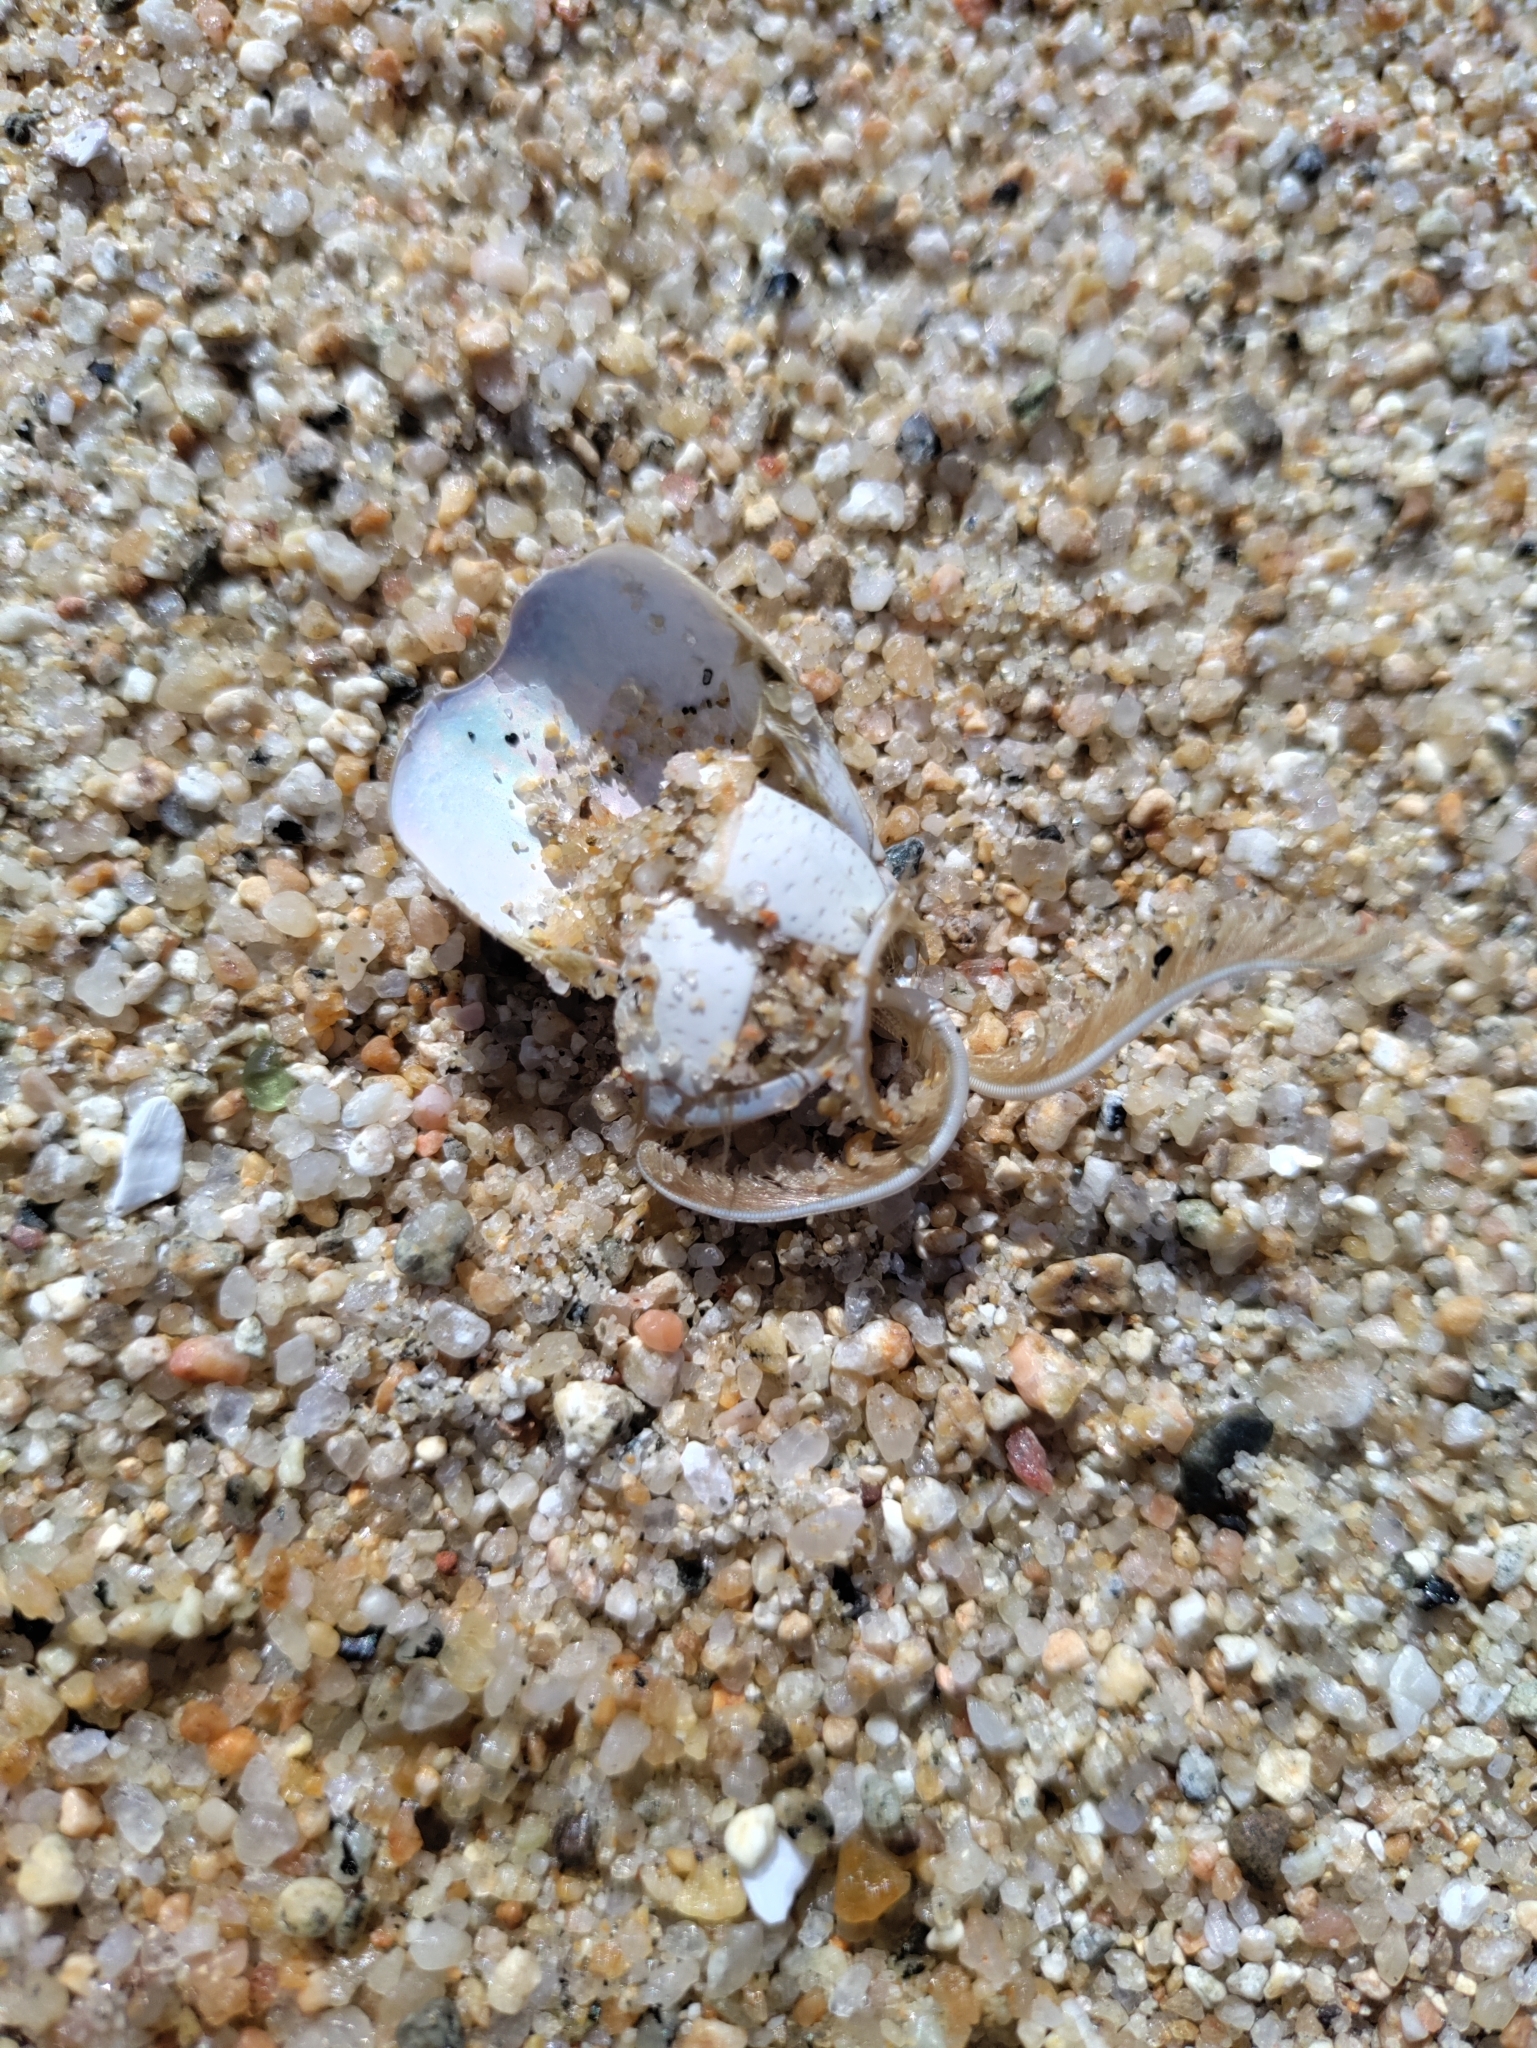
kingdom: Animalia
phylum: Arthropoda
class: Malacostraca
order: Decapoda
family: Hippidae
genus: Emerita
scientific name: Emerita analoga
